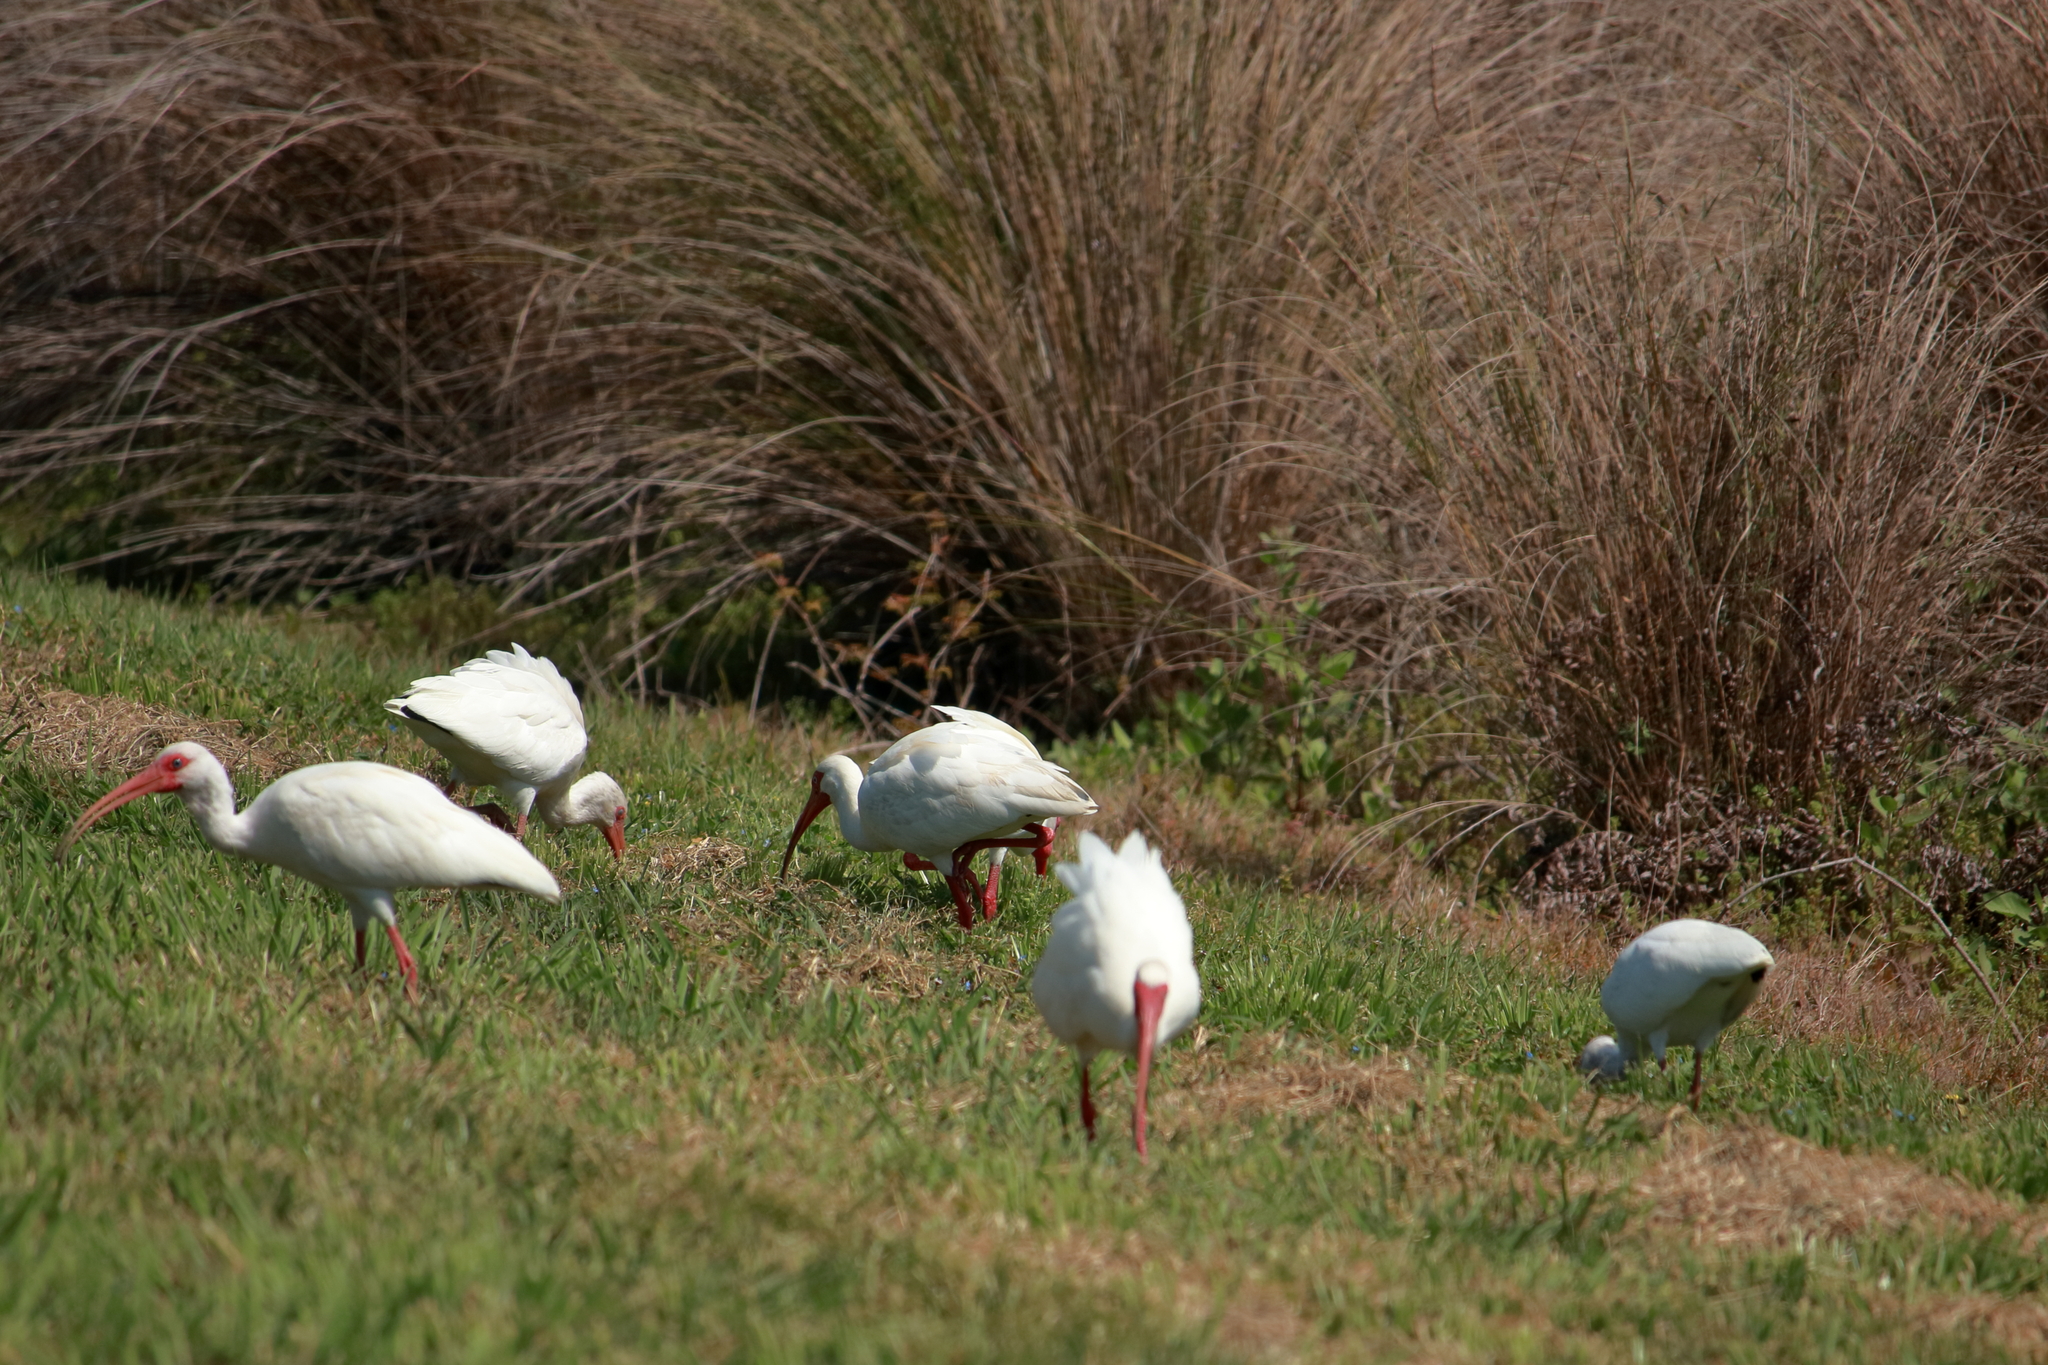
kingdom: Animalia
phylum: Chordata
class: Aves
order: Pelecaniformes
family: Threskiornithidae
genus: Eudocimus
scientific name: Eudocimus albus
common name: White ibis
